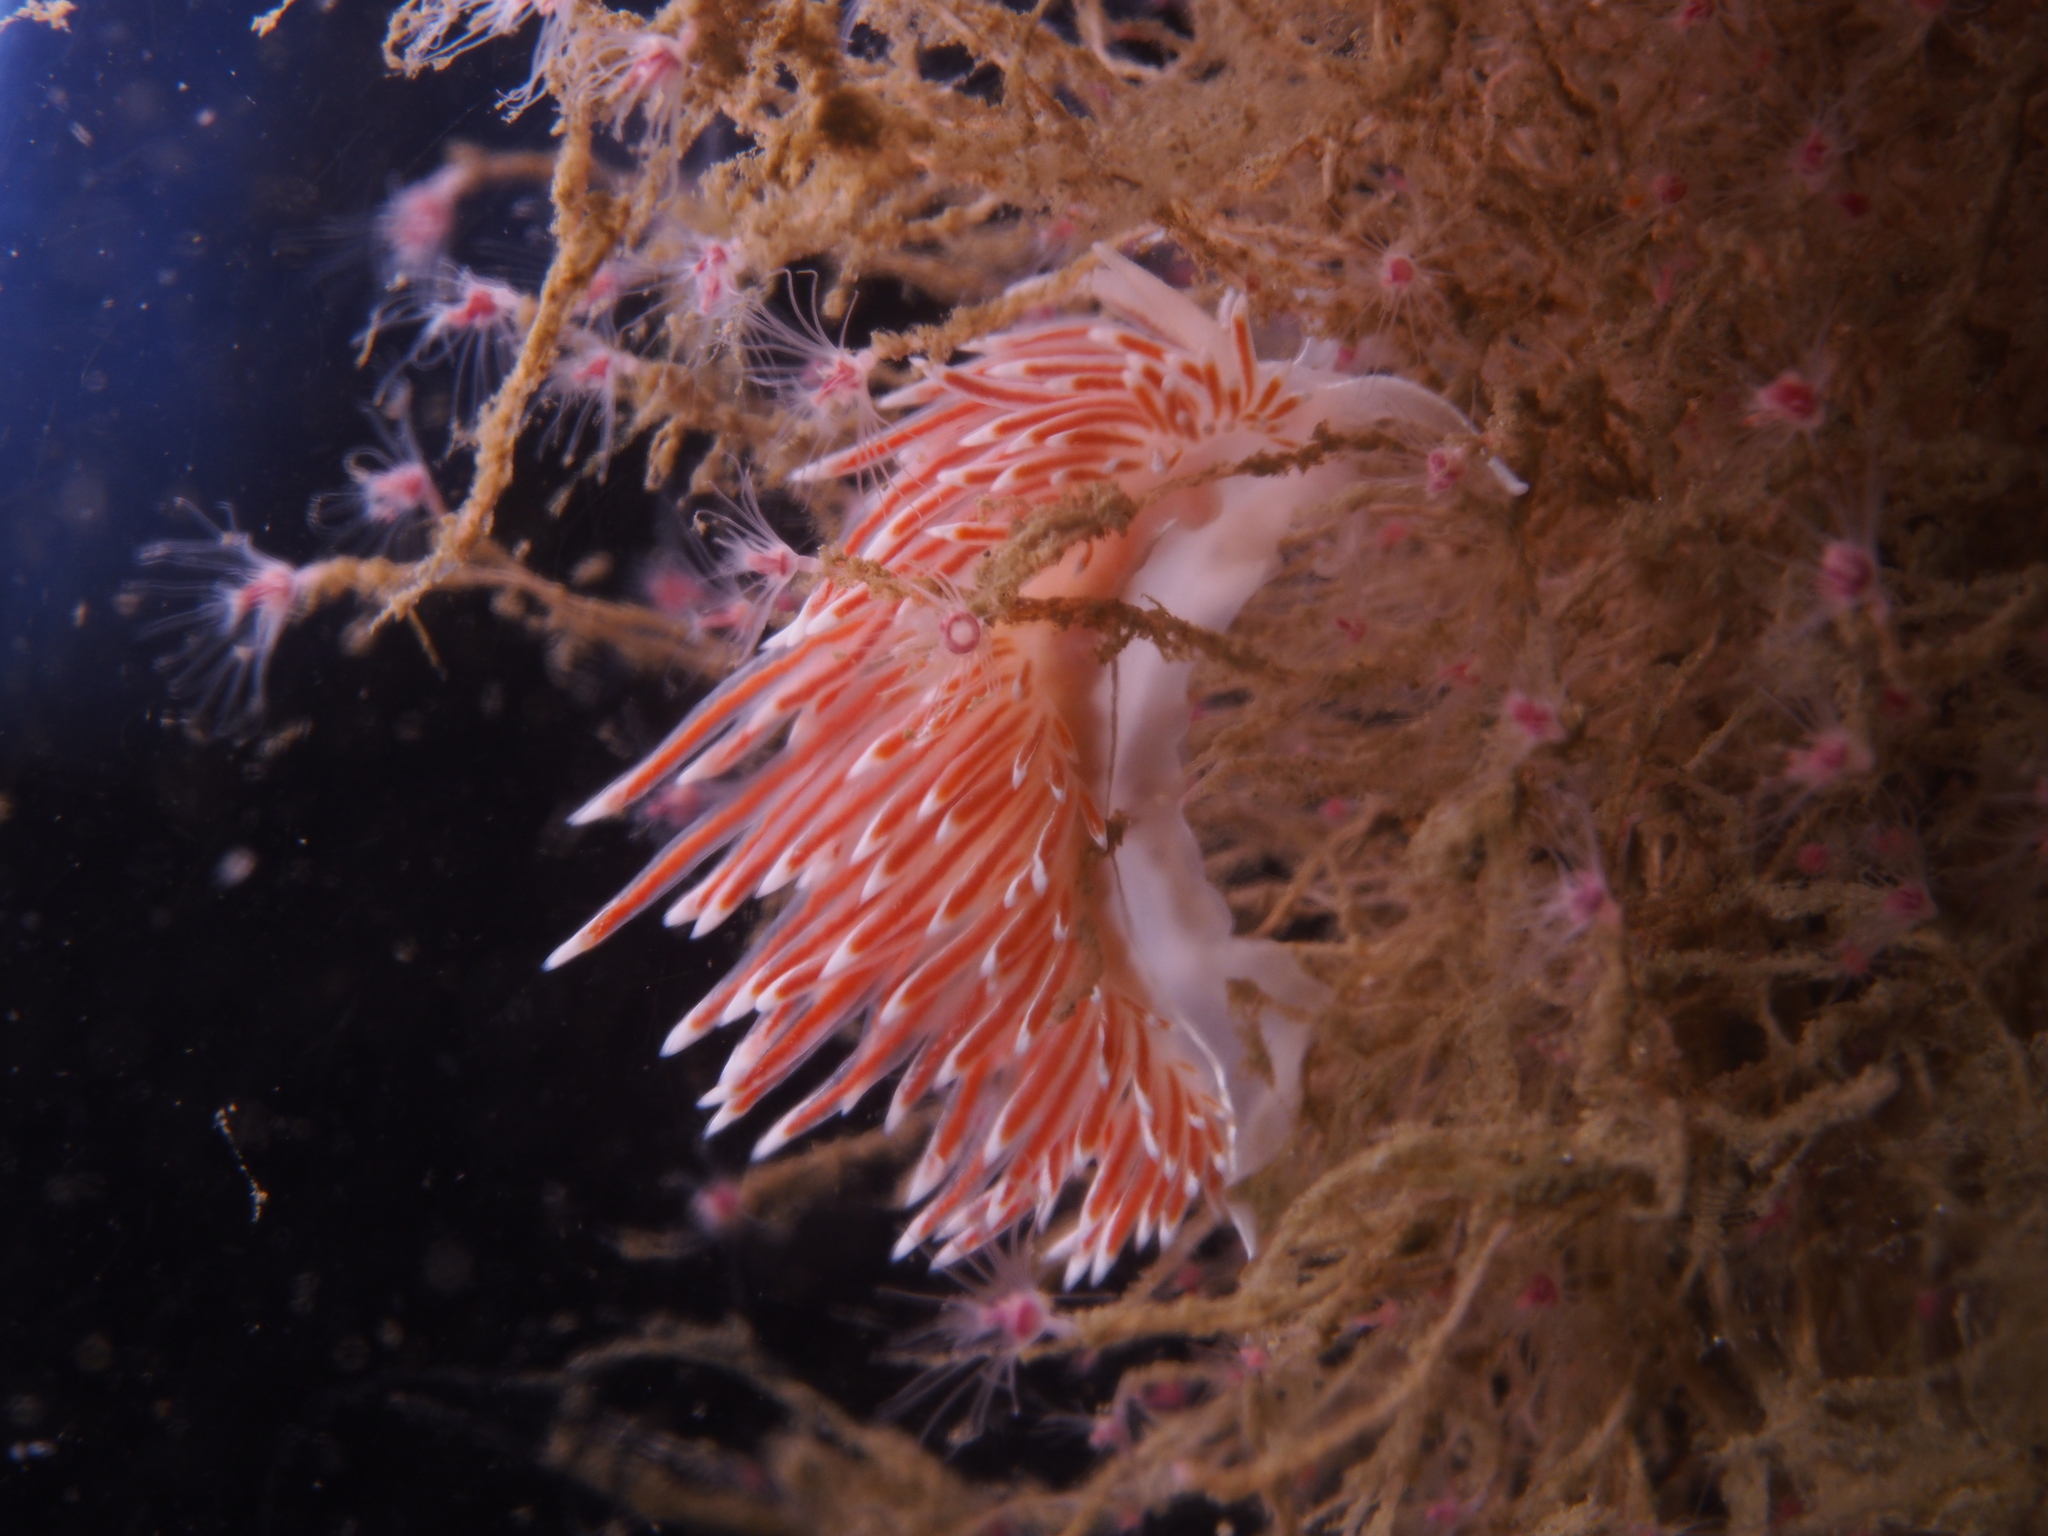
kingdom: Animalia
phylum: Mollusca
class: Gastropoda
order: Nudibranchia
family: Coryphellidae
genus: Coryphella
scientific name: Coryphella lineata
